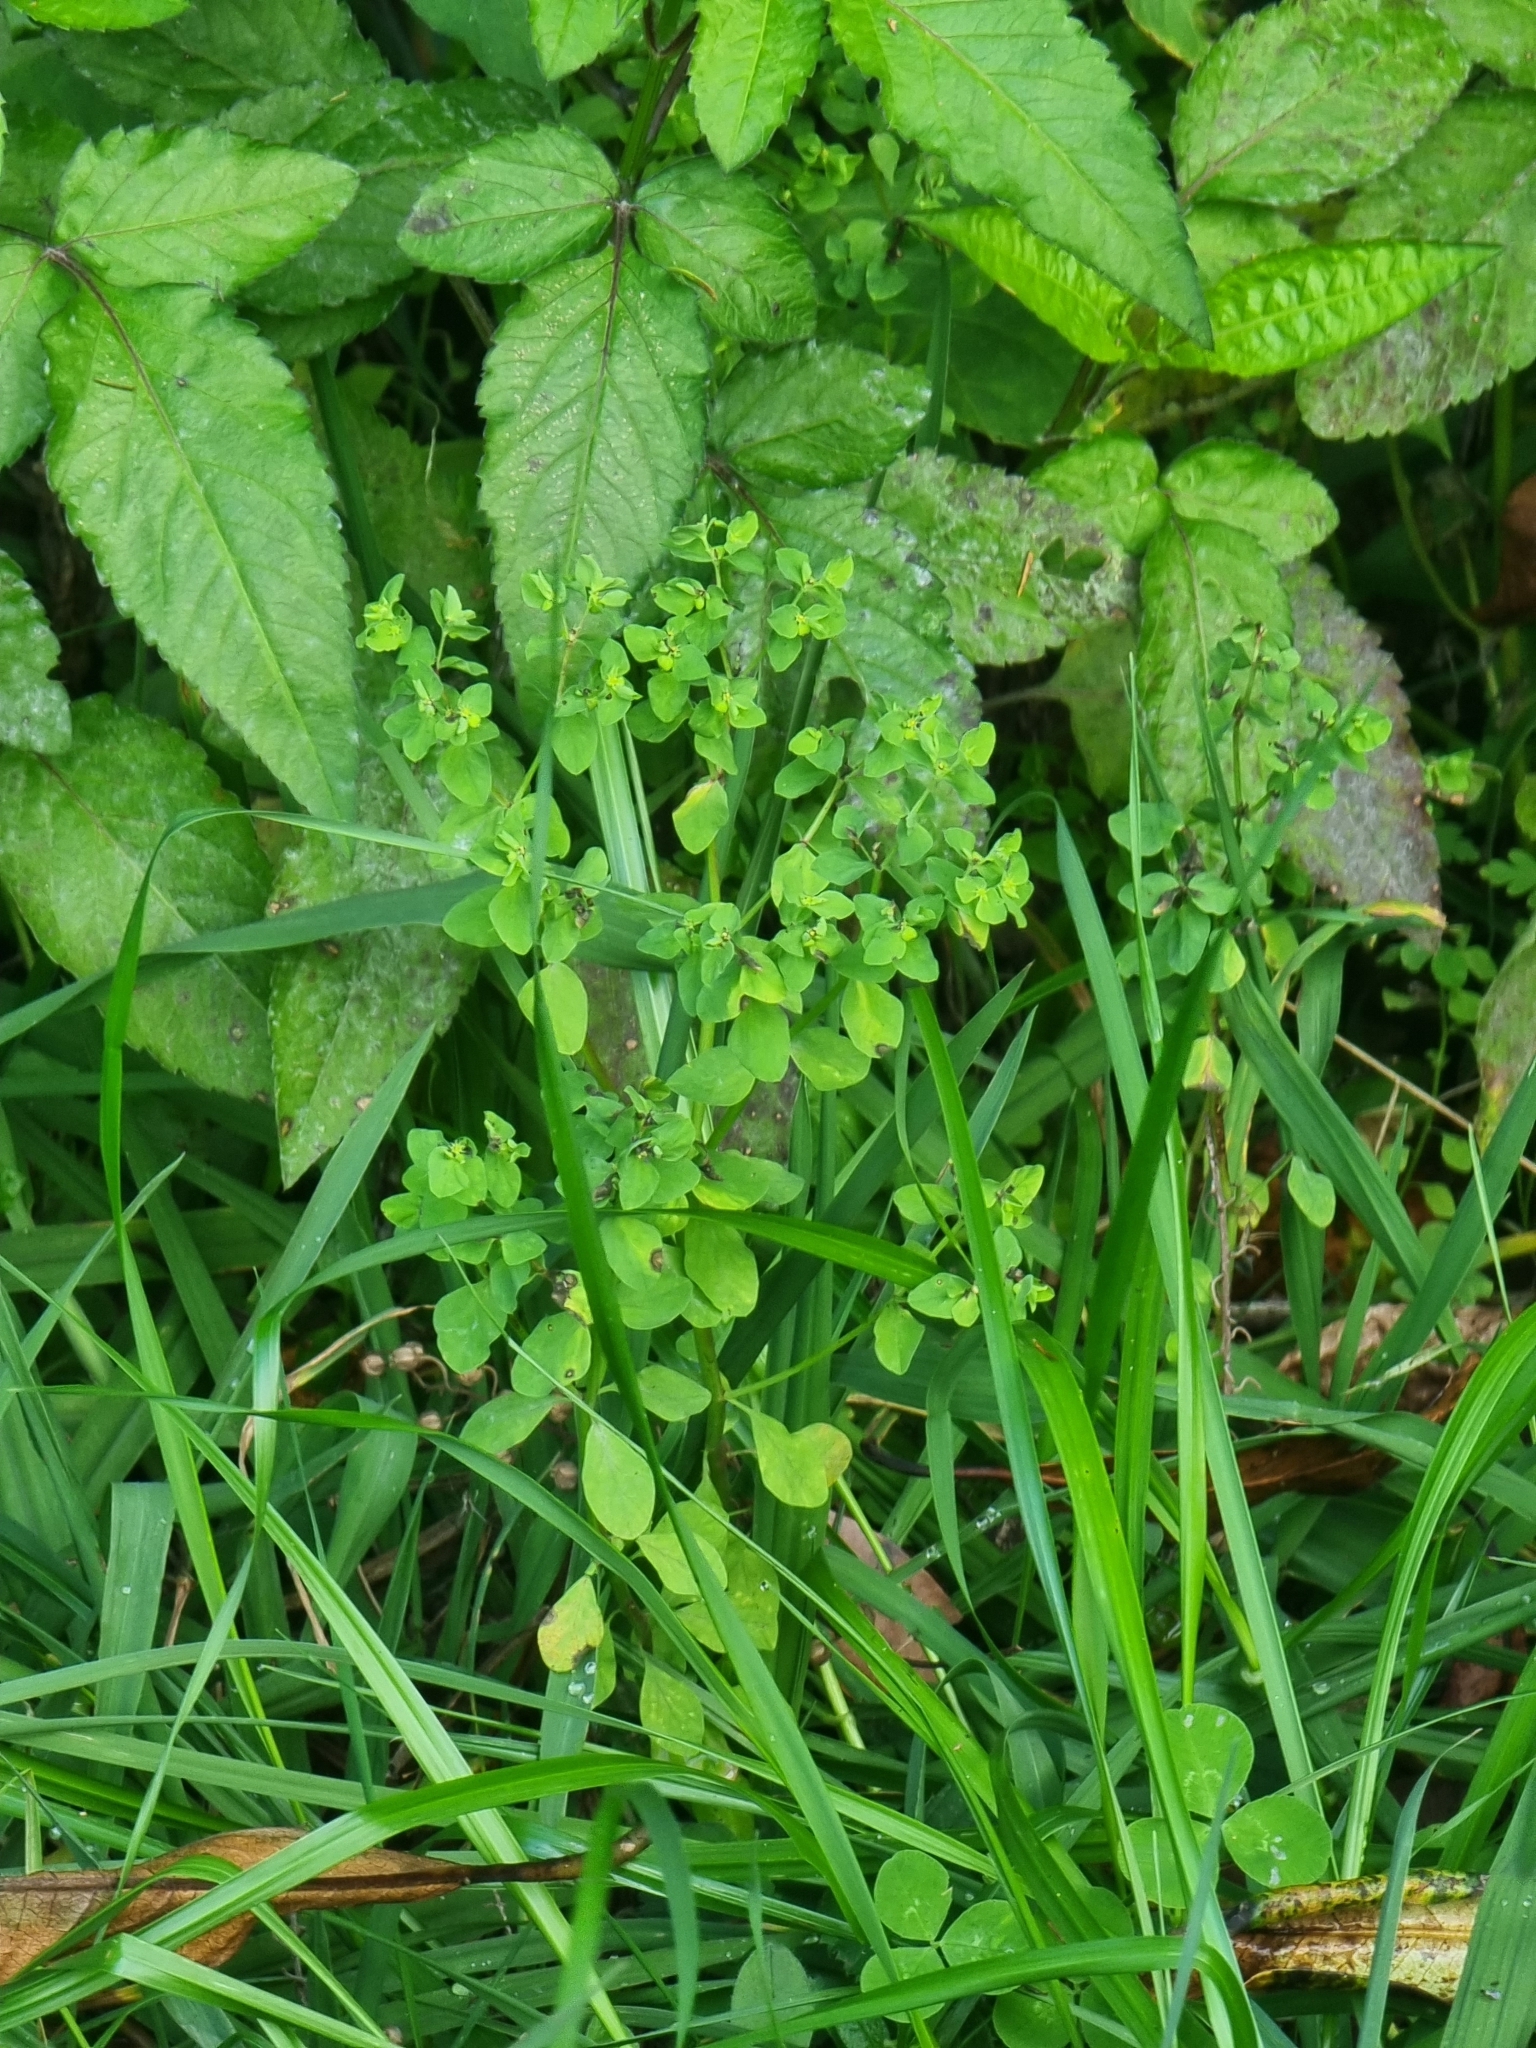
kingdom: Plantae
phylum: Tracheophyta
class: Magnoliopsida
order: Malpighiales
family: Euphorbiaceae
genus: Euphorbia
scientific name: Euphorbia peplus
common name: Petty spurge
